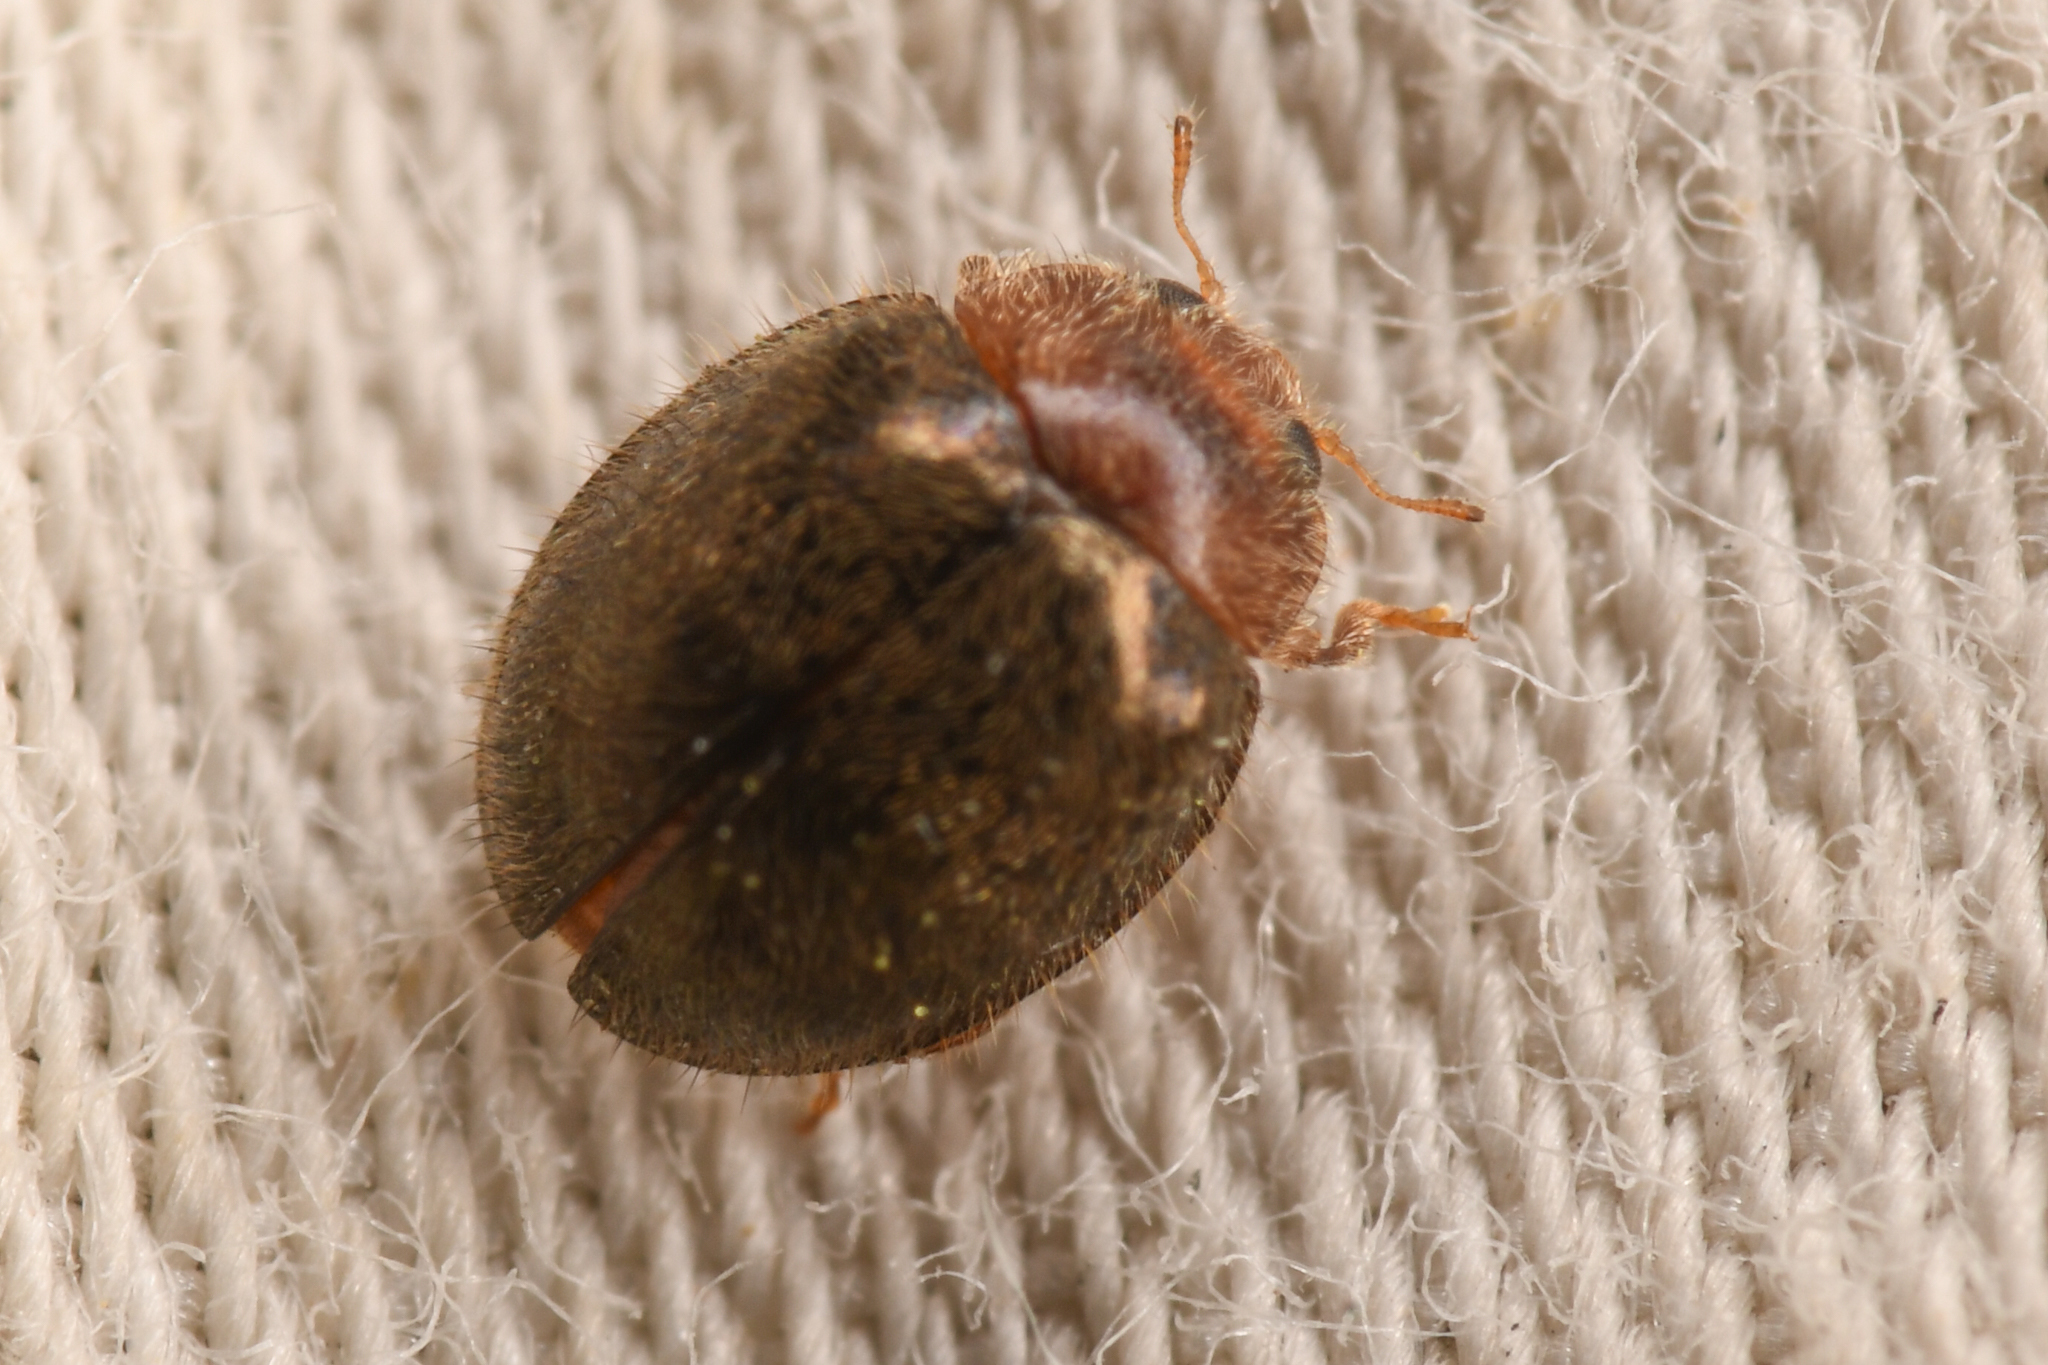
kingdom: Animalia
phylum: Arthropoda
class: Insecta
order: Coleoptera
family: Coccinellidae
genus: Rhyzobius
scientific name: Rhyzobius lophanthae
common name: Scale-eating ladybird beetle
